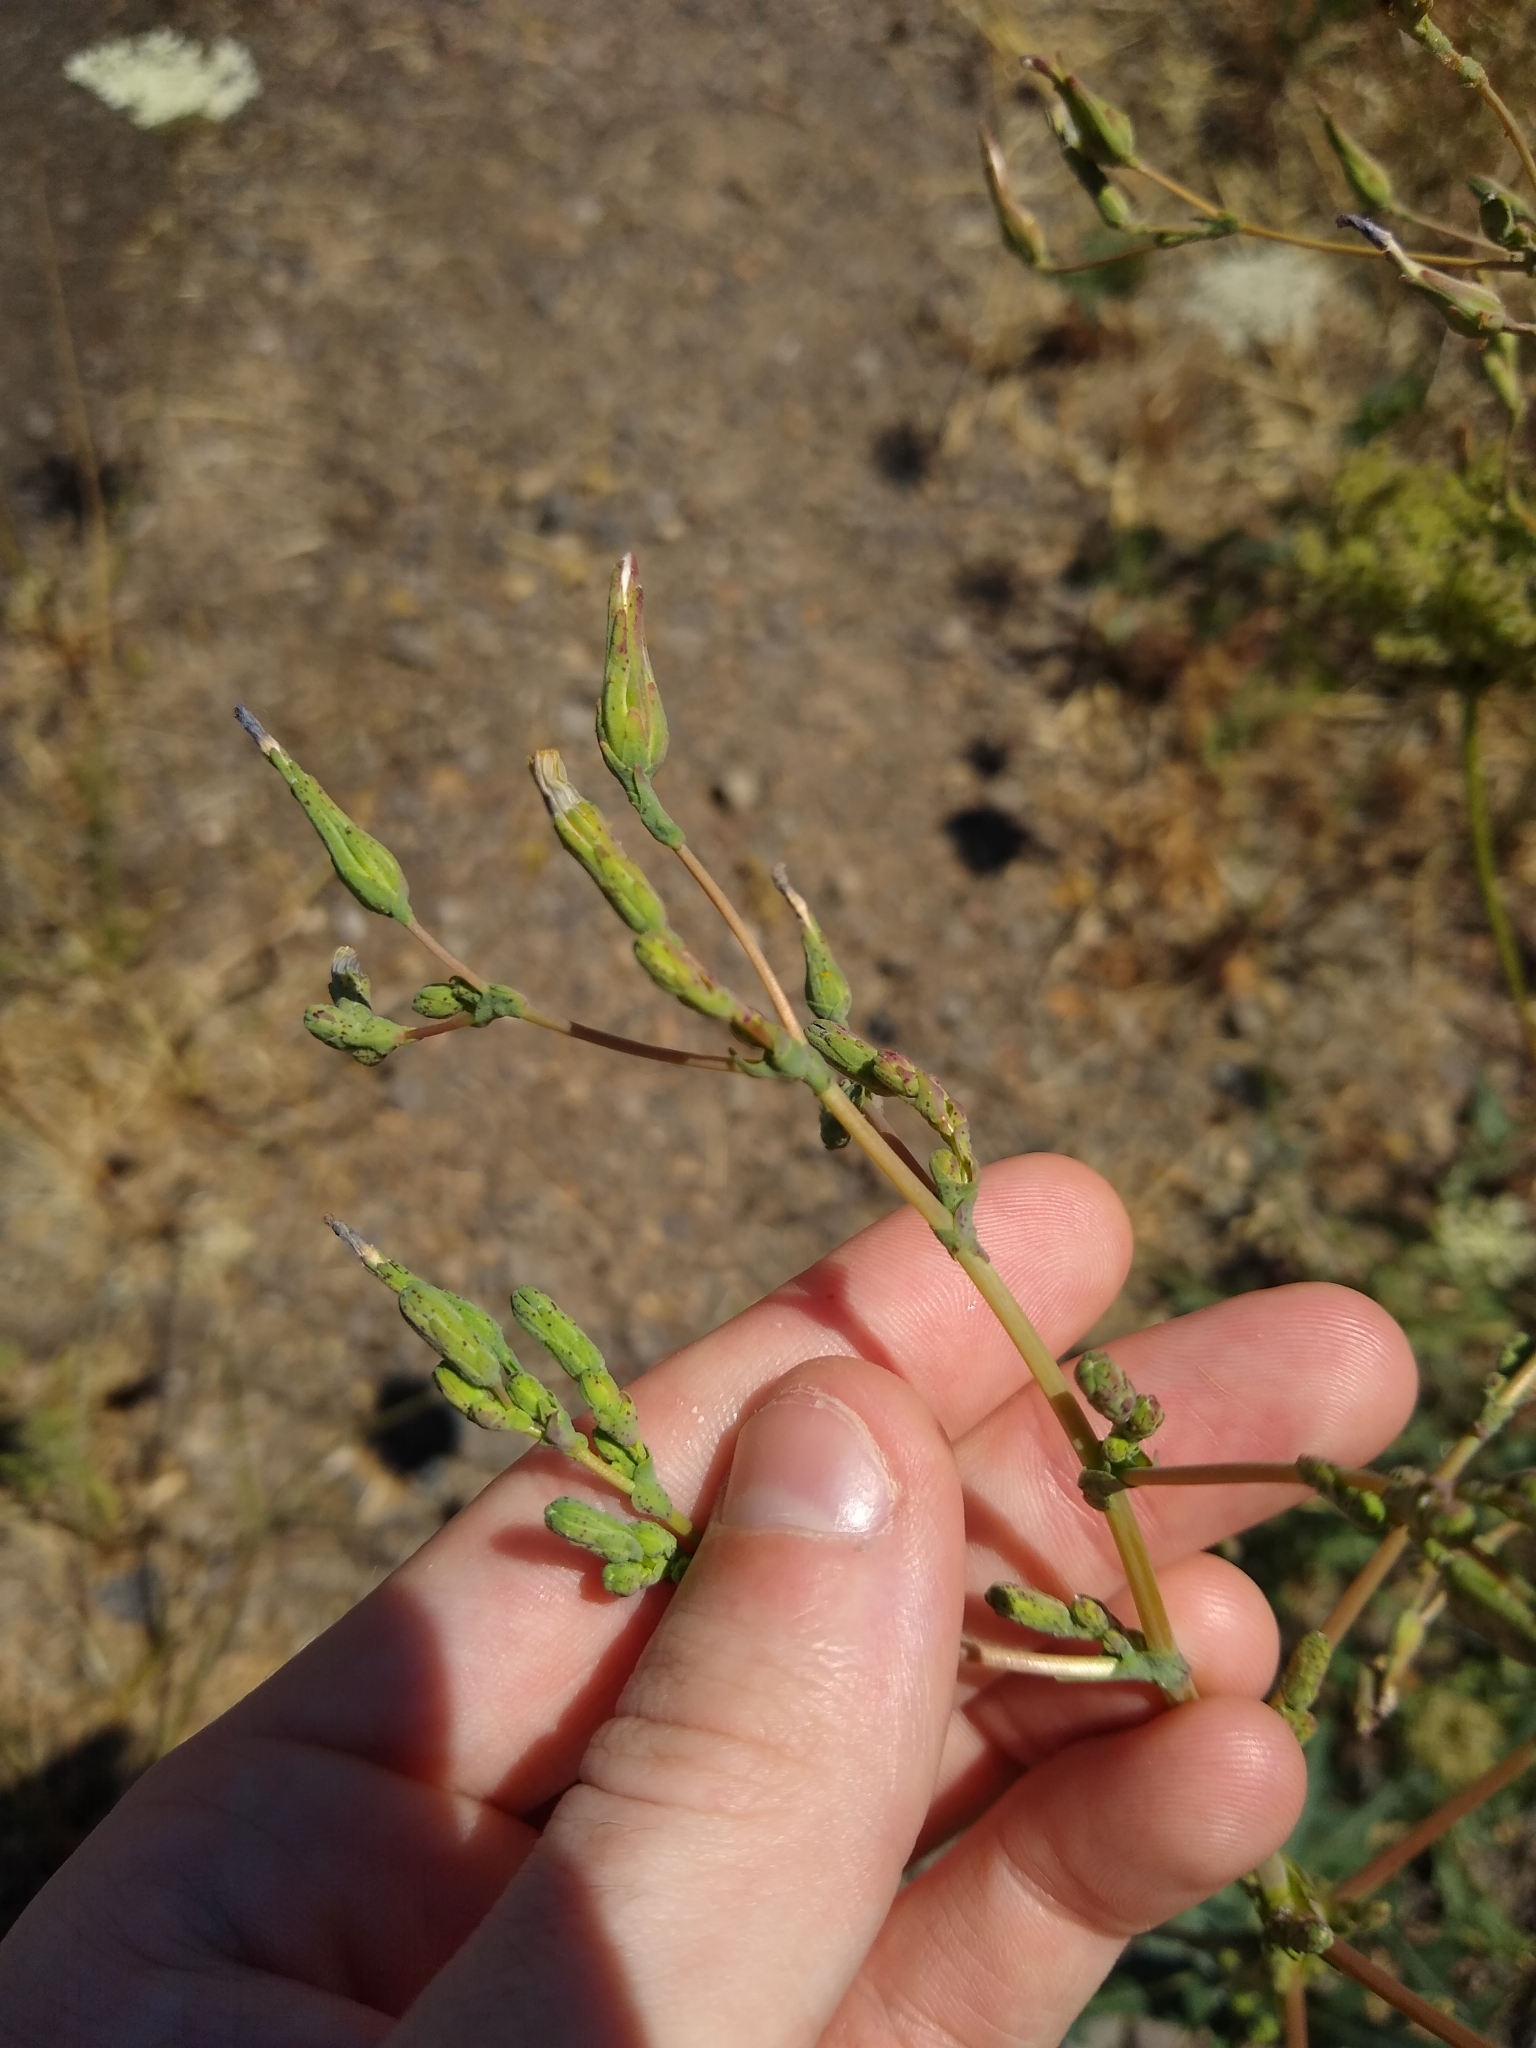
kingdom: Plantae
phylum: Tracheophyta
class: Magnoliopsida
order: Asterales
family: Asteraceae
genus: Lactuca
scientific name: Lactuca serriola
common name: Prickly lettuce
